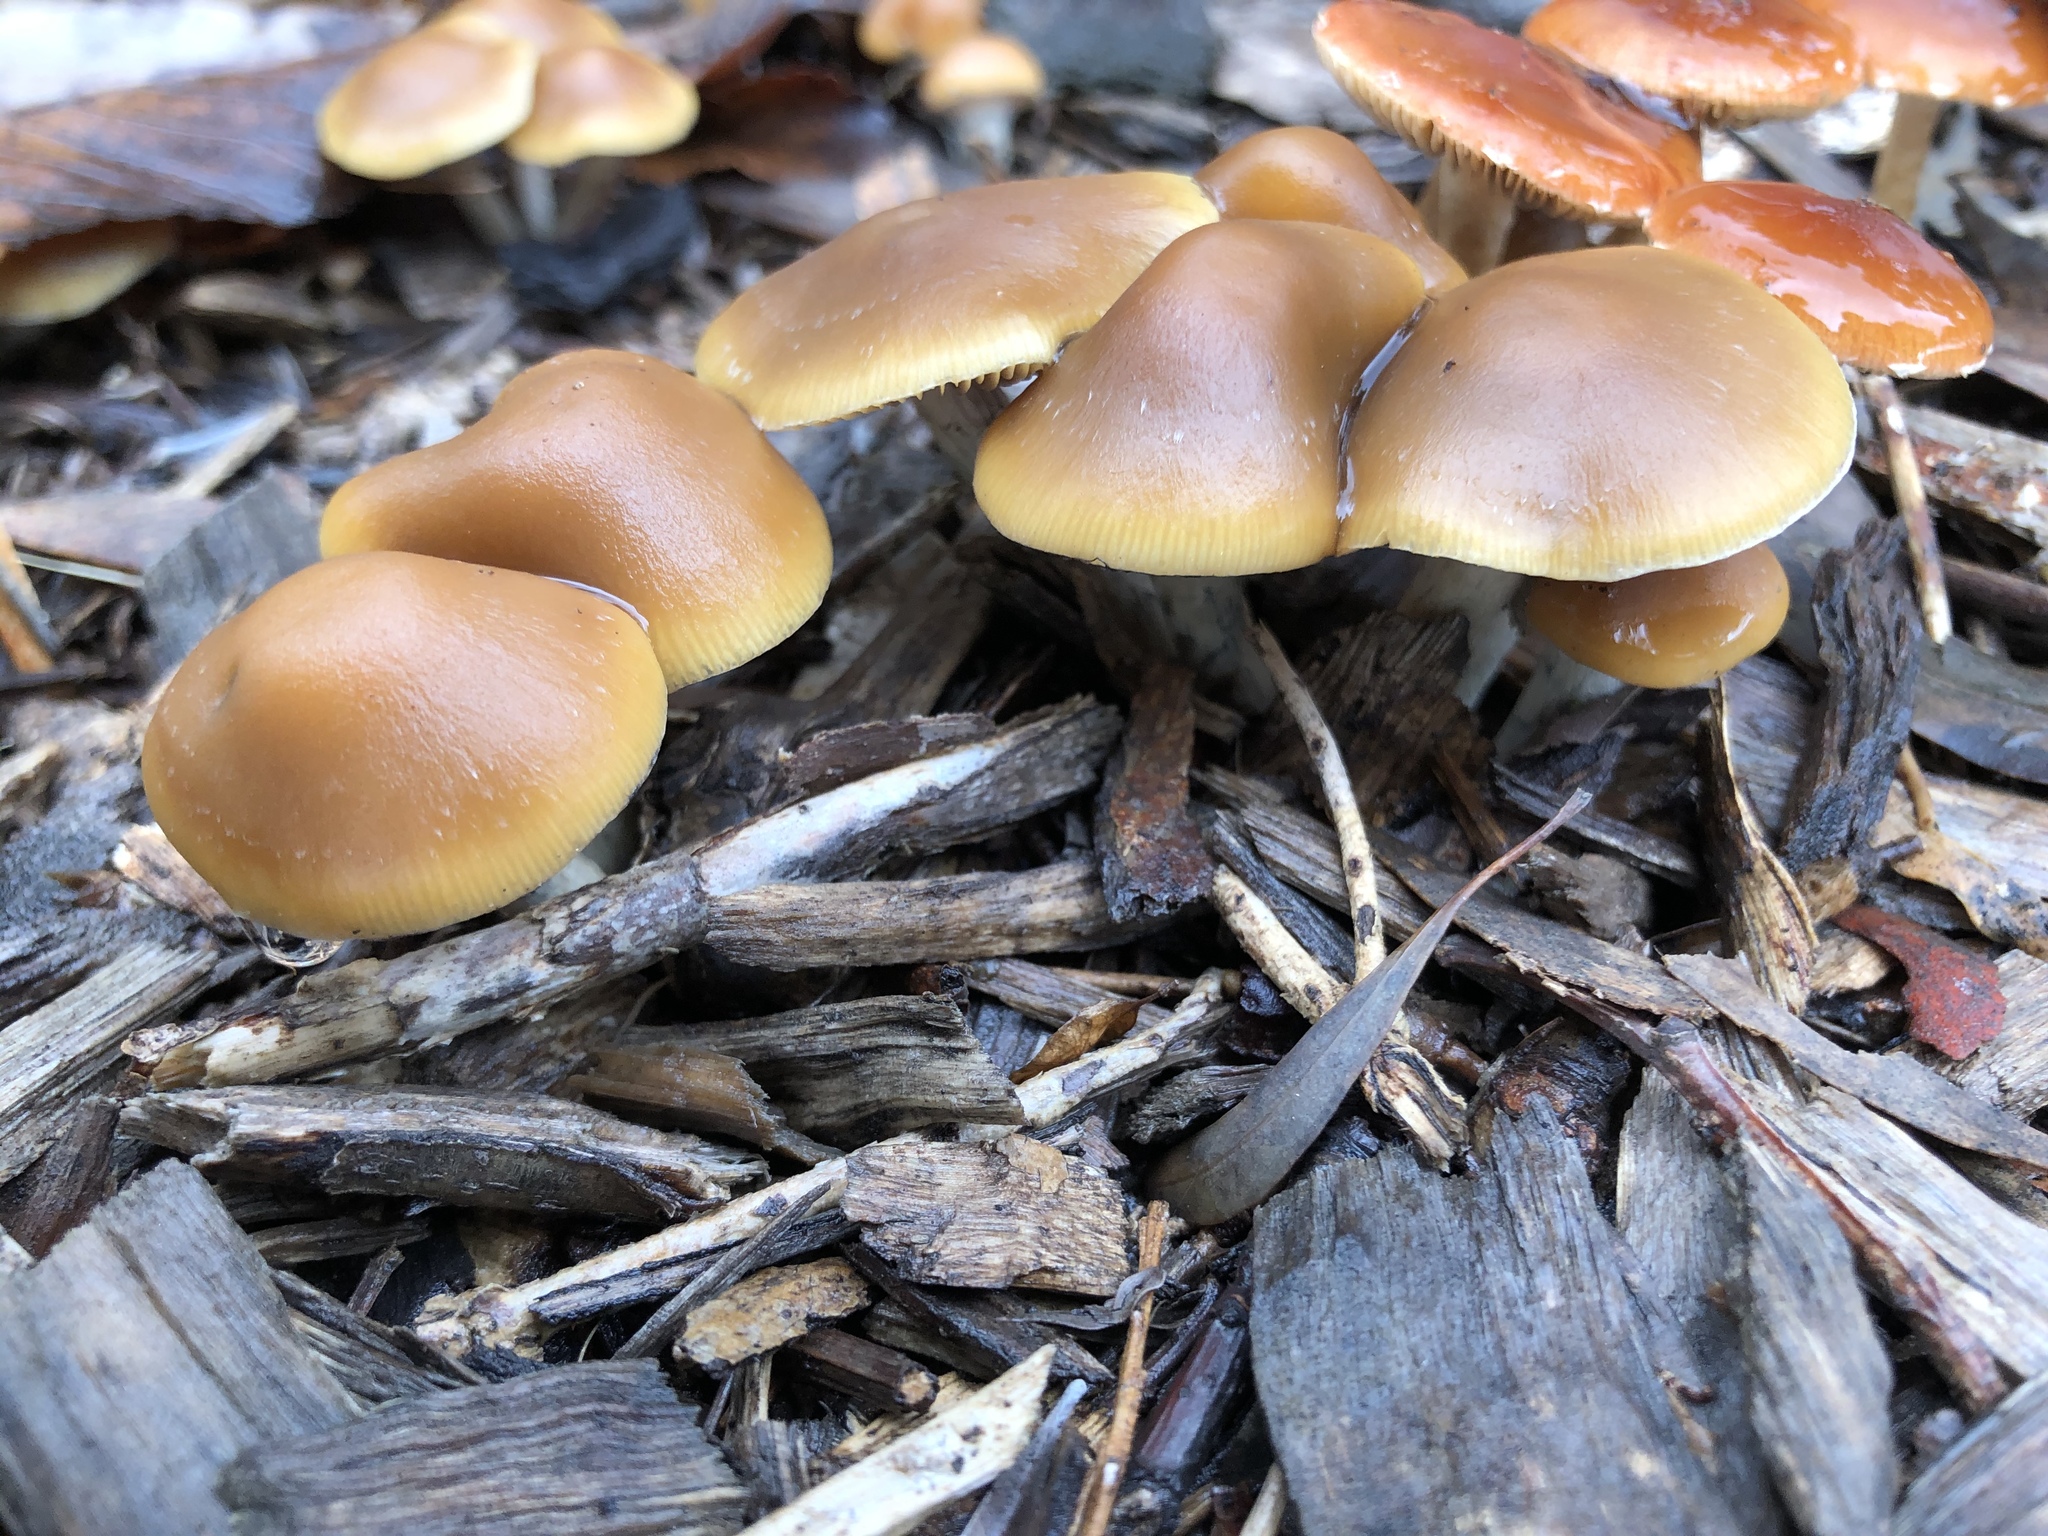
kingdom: Fungi
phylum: Basidiomycota
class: Agaricomycetes
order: Agaricales
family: Hymenogastraceae
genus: Psilocybe
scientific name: Psilocybe subaeruginosa
